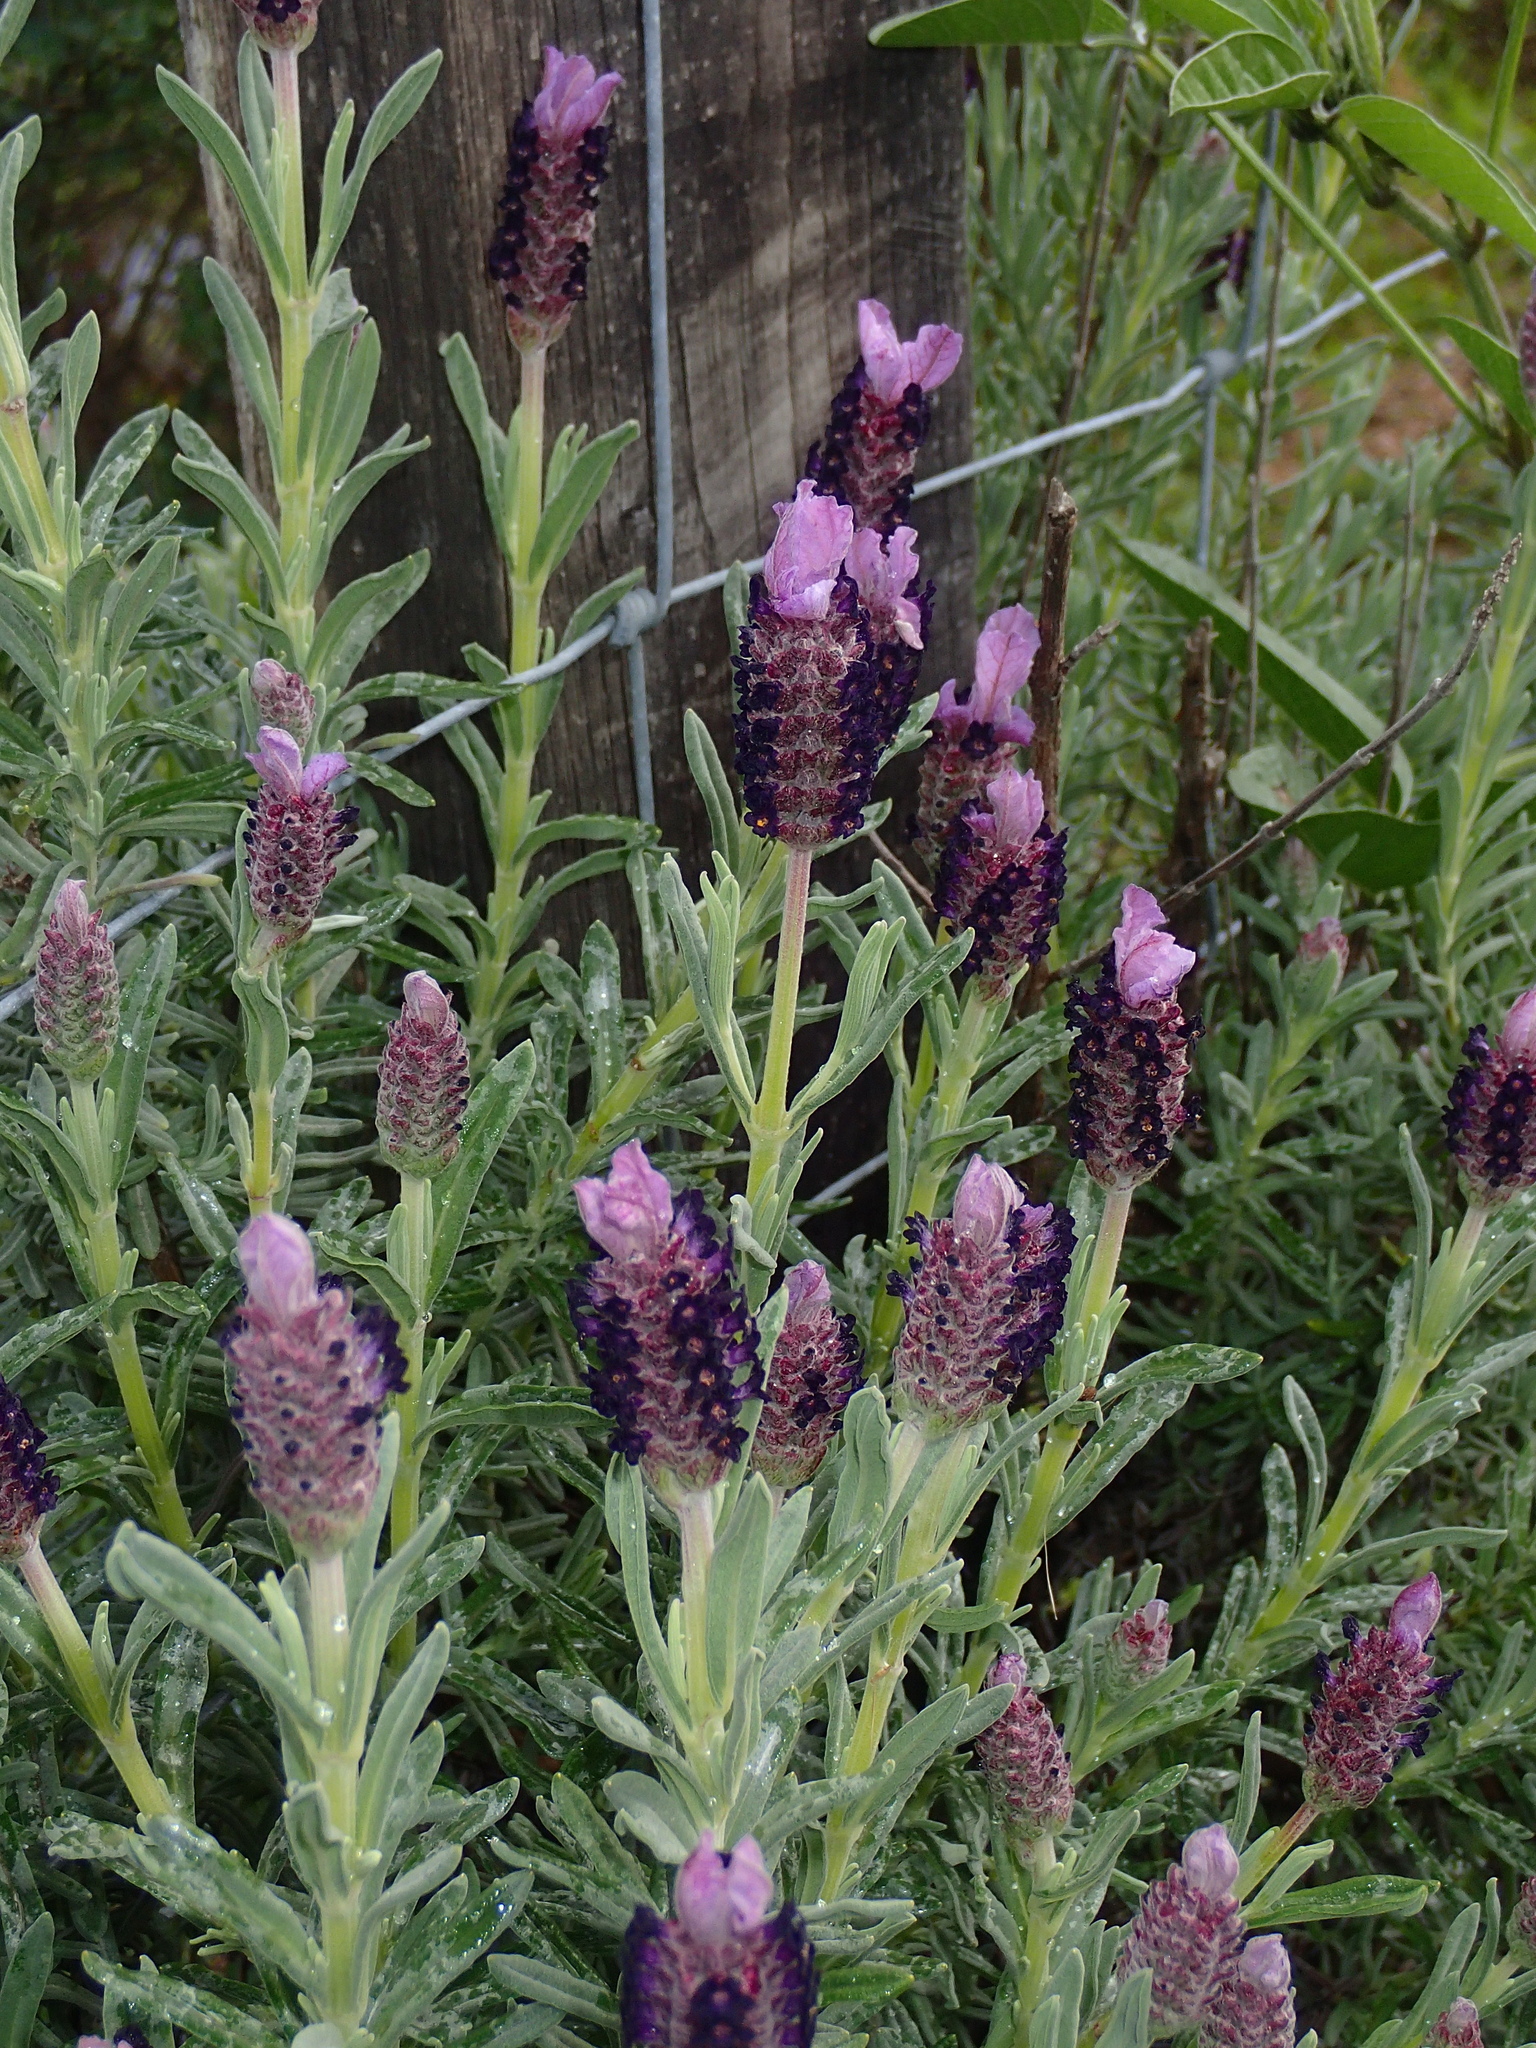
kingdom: Plantae
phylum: Tracheophyta
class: Magnoliopsida
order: Lamiales
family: Lamiaceae
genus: Lavandula
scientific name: Lavandula stoechas
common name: French lavender
